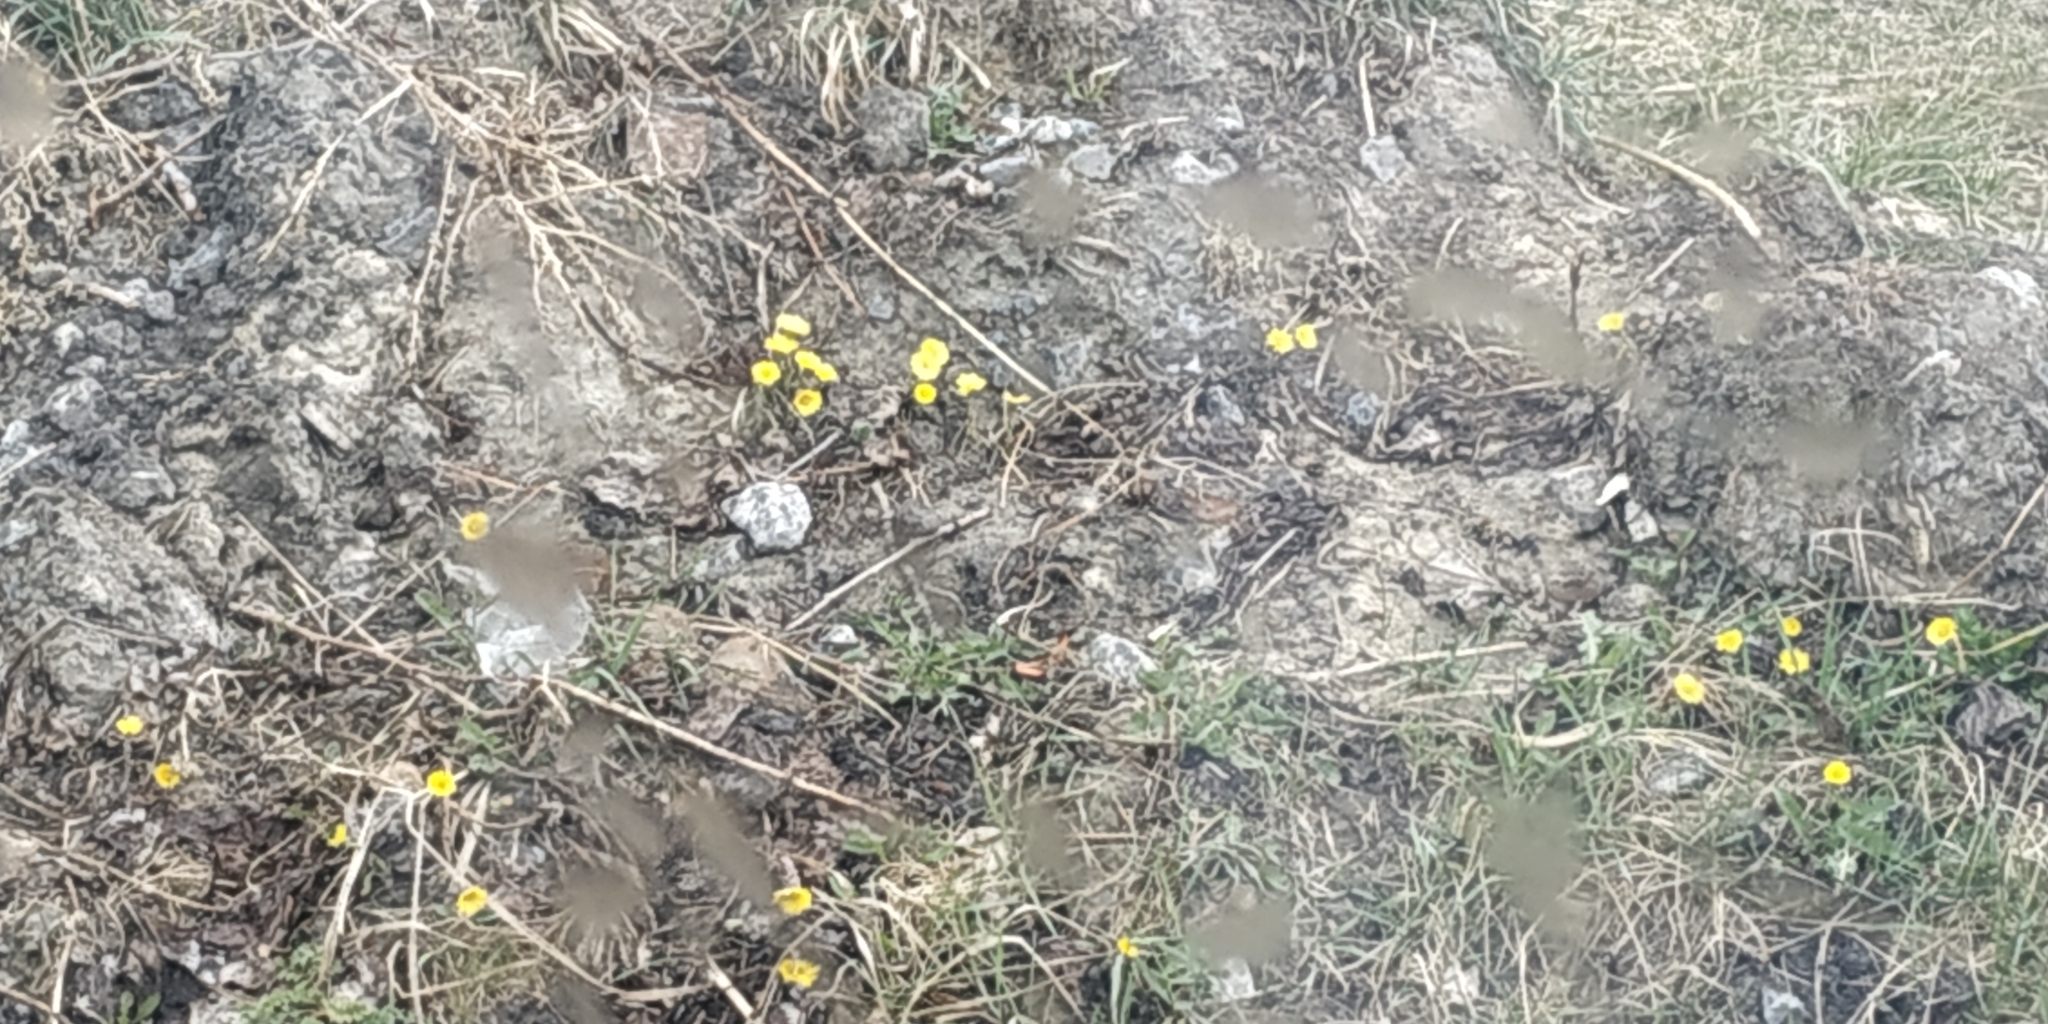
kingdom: Plantae
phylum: Tracheophyta
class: Magnoliopsida
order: Asterales
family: Asteraceae
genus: Tussilago
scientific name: Tussilago farfara
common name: Coltsfoot
